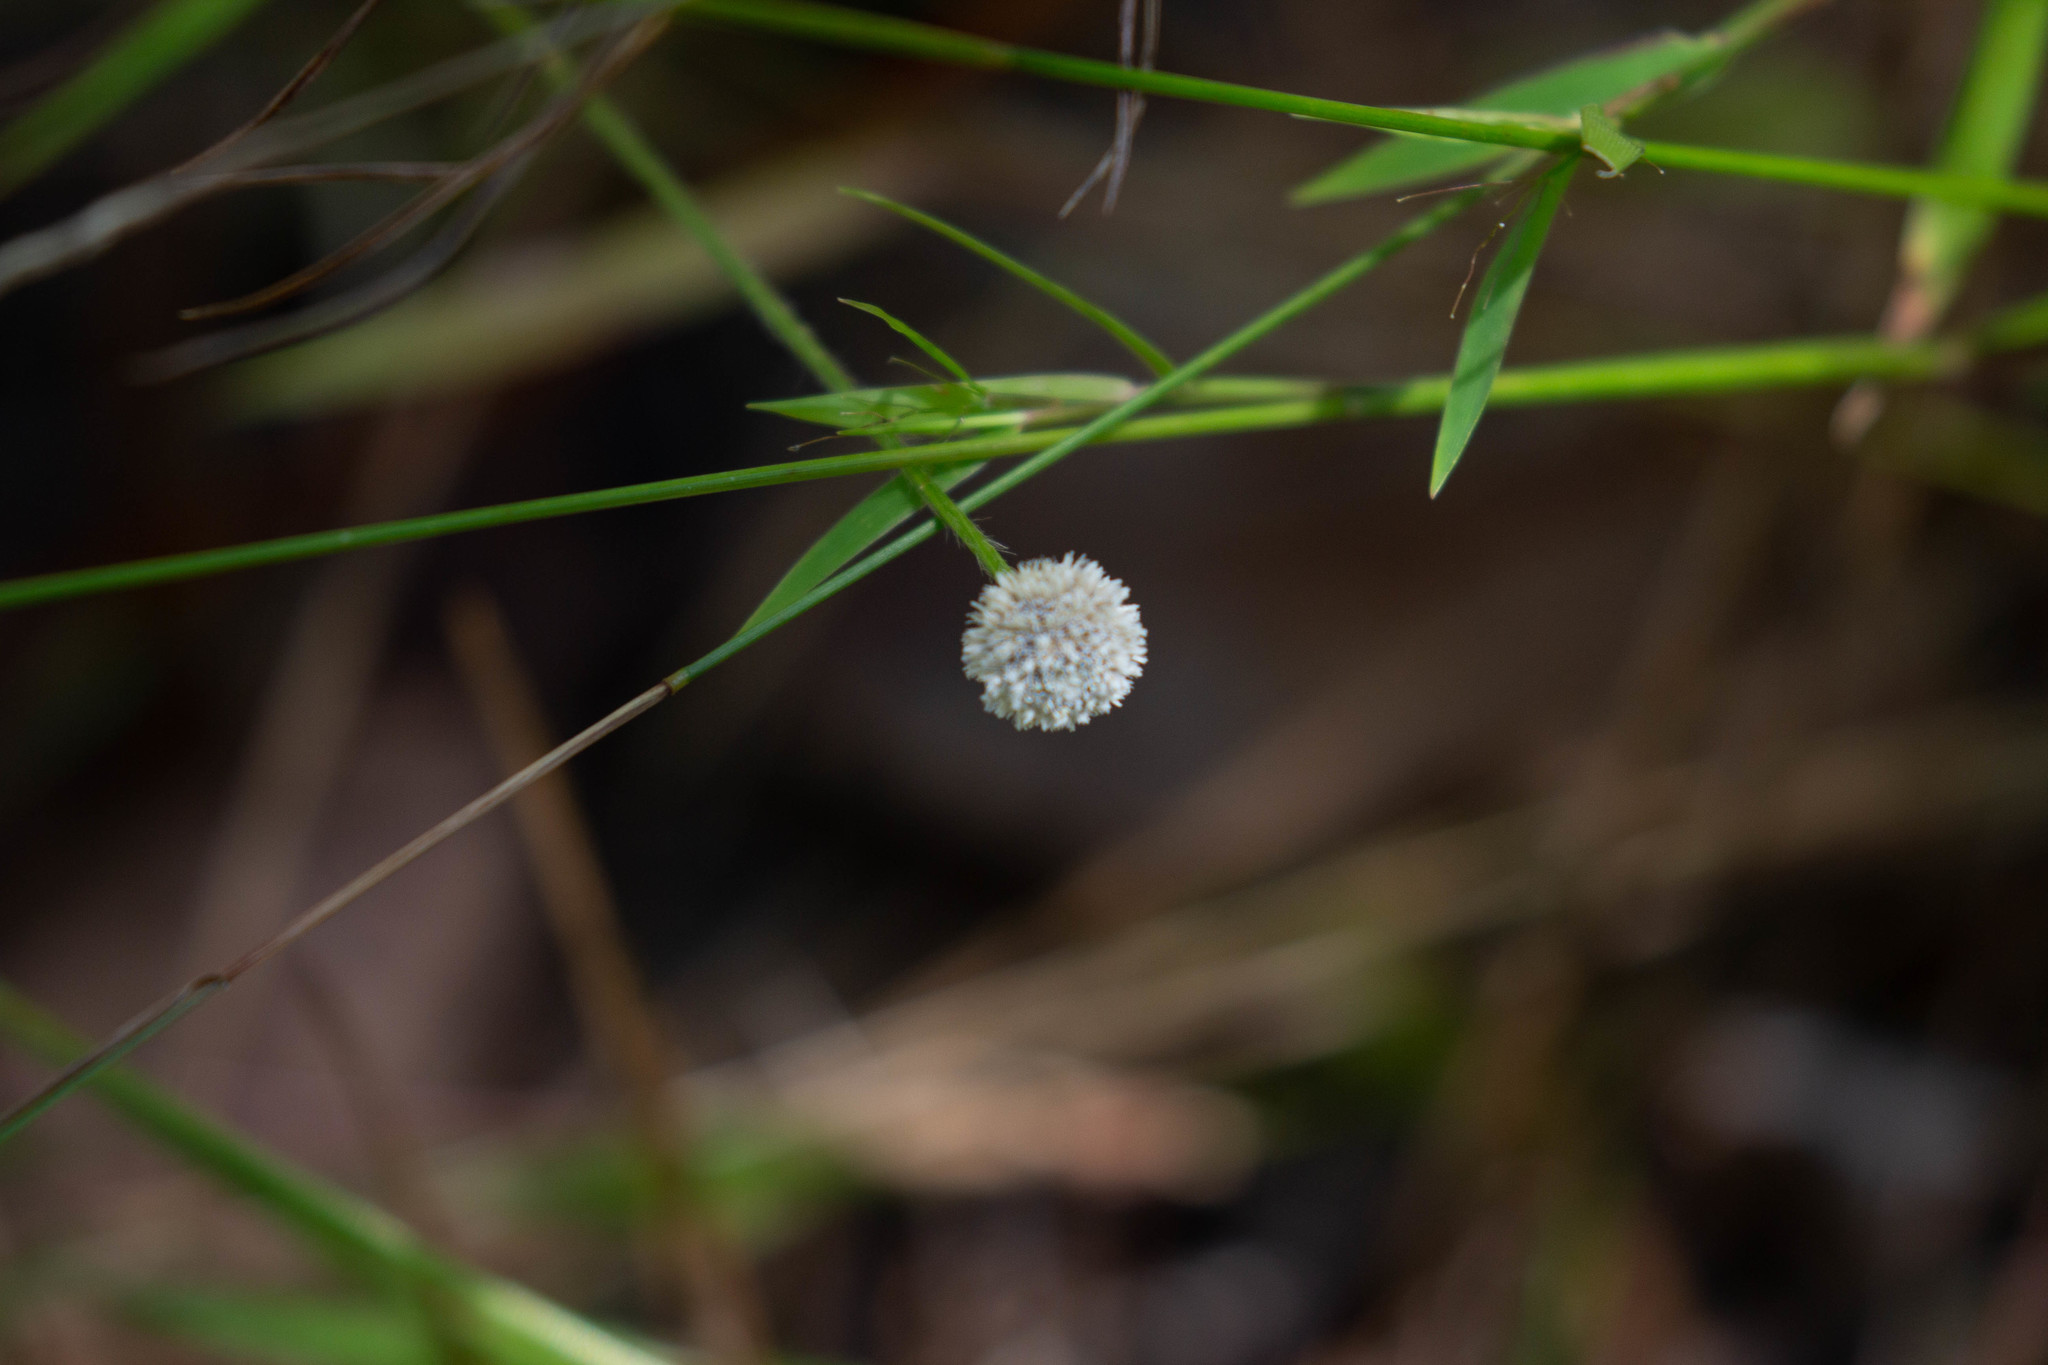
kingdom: Plantae
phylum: Tracheophyta
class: Liliopsida
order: Poales
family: Eriocaulaceae
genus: Paepalanthus
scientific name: Paepalanthus anceps
